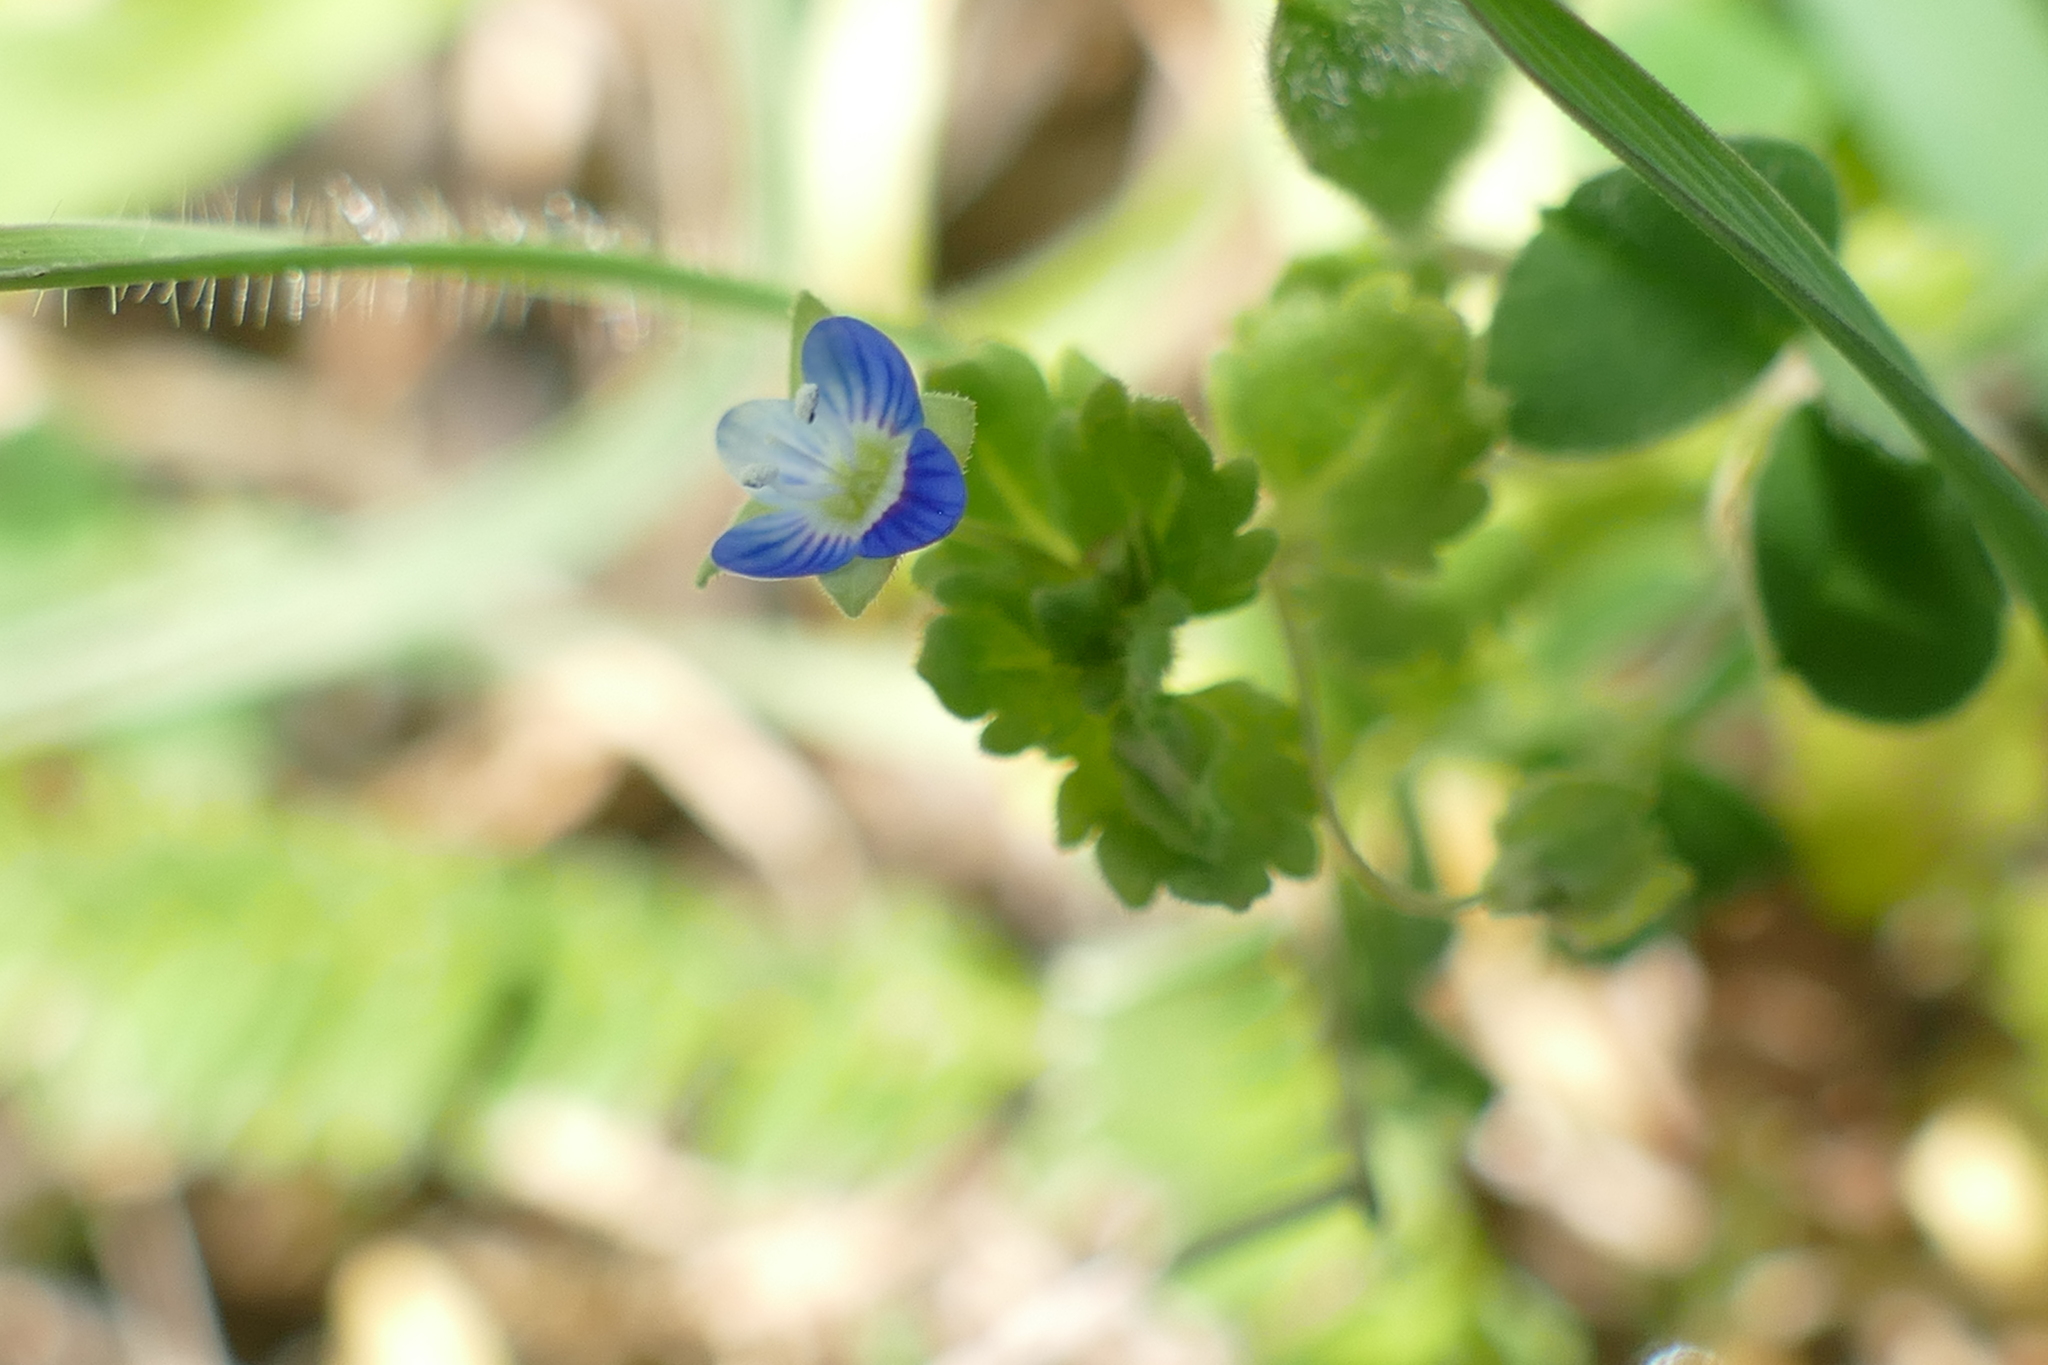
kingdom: Plantae
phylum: Tracheophyta
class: Magnoliopsida
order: Lamiales
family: Plantaginaceae
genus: Veronica
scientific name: Veronica persica
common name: Common field-speedwell
